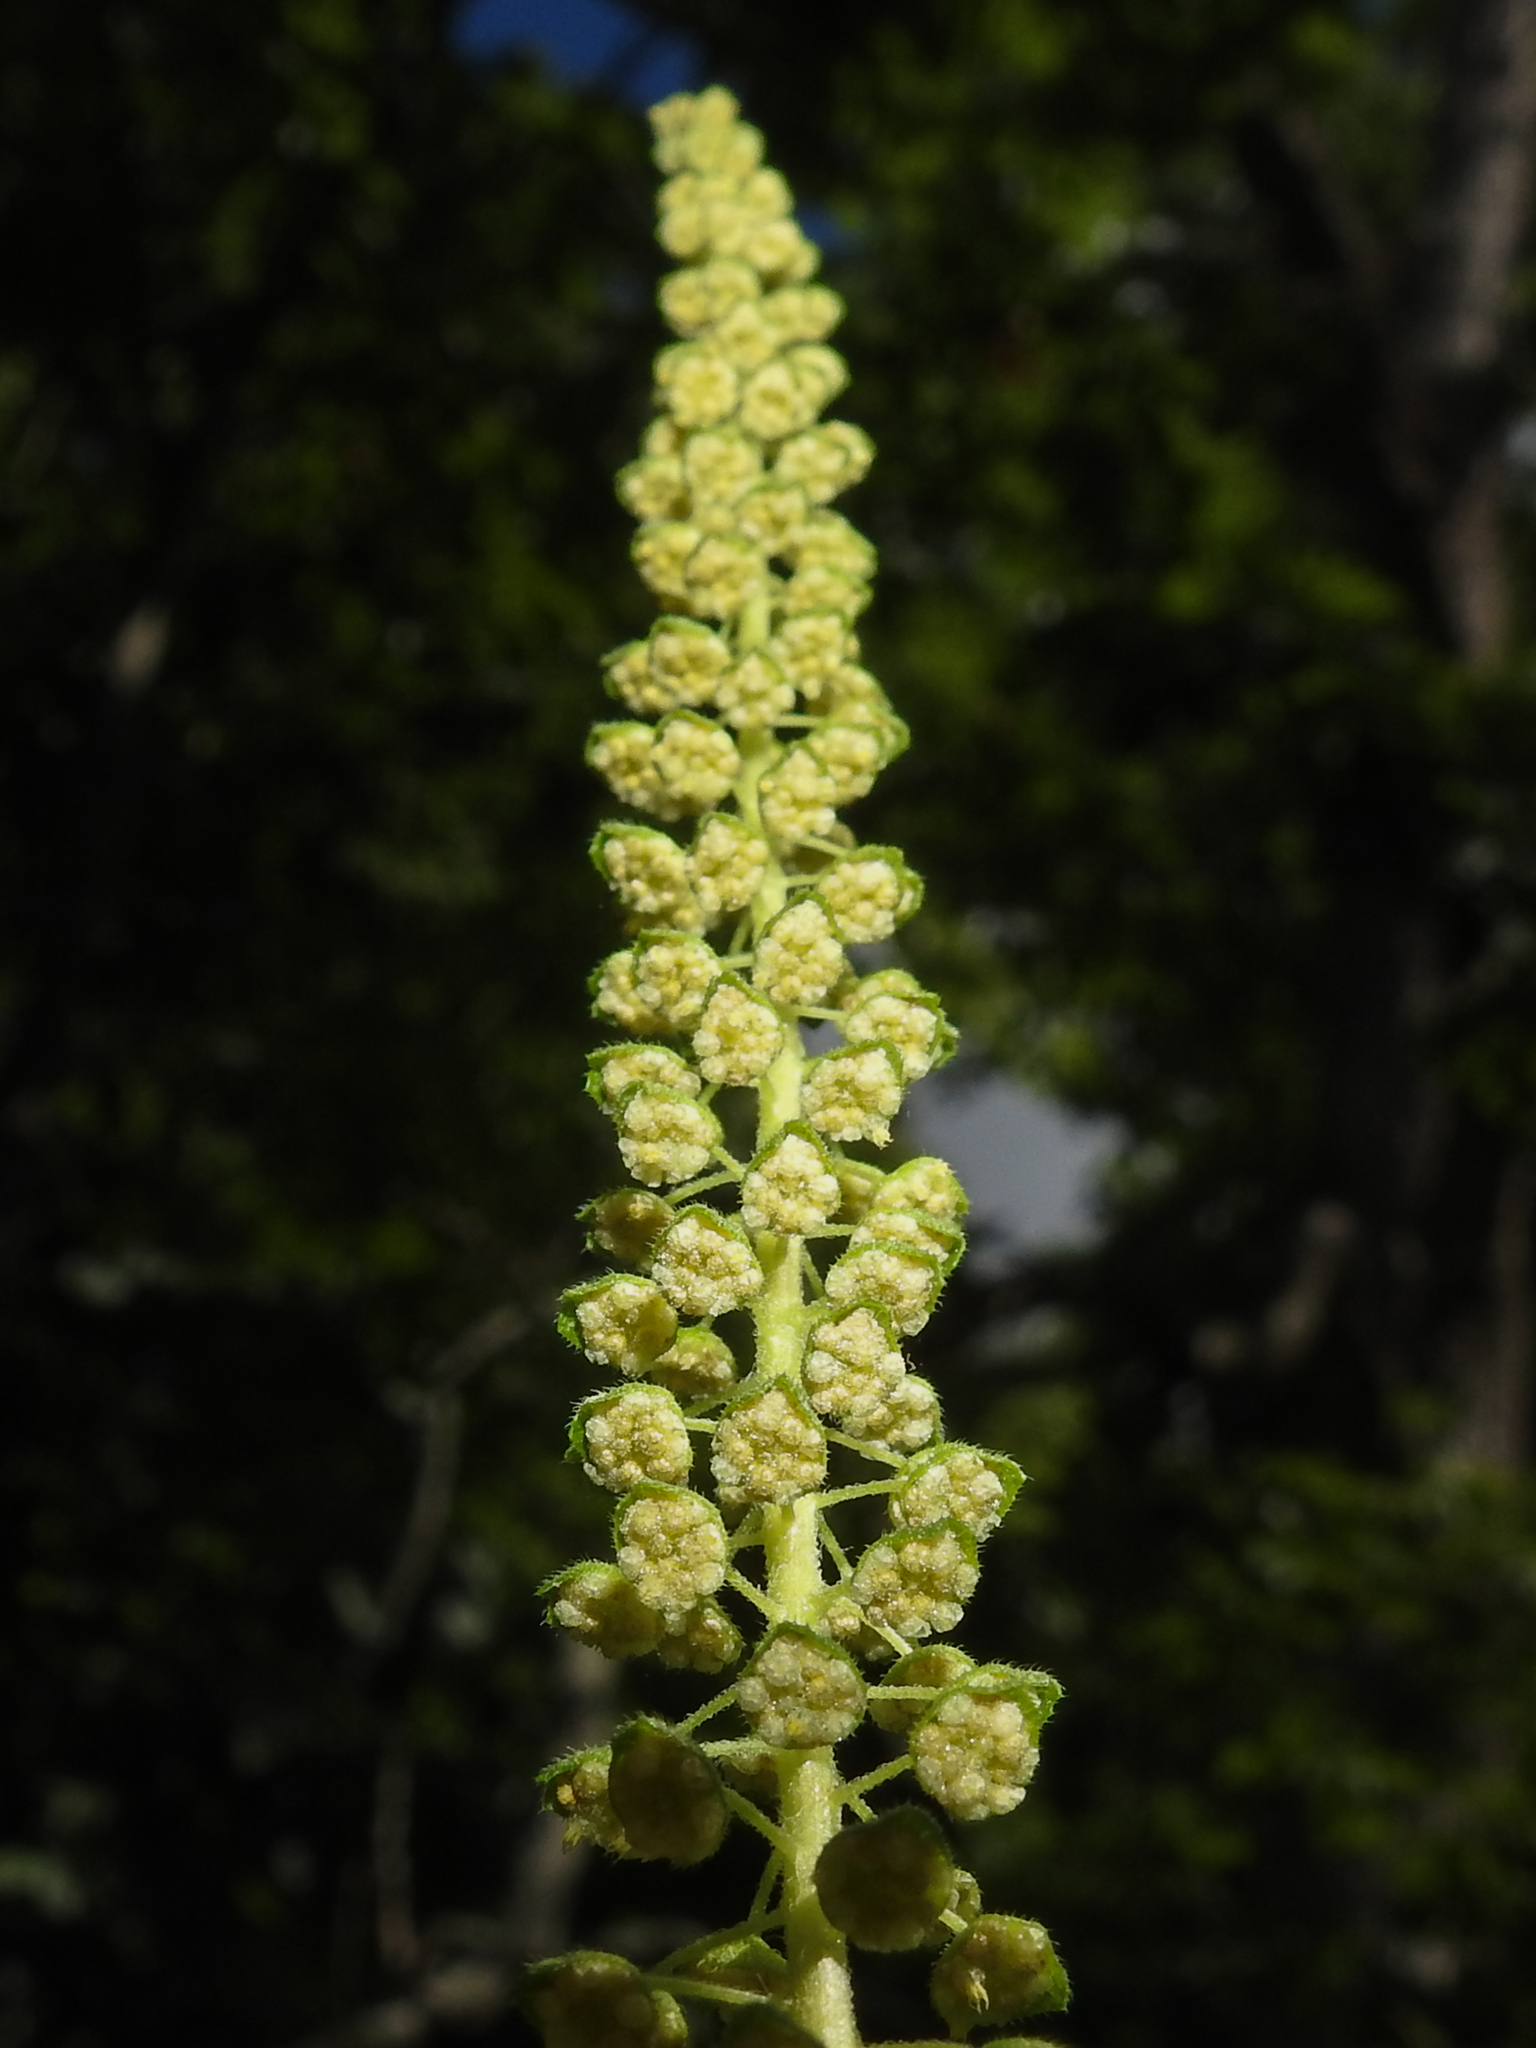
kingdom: Plantae
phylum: Tracheophyta
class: Magnoliopsida
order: Asterales
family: Asteraceae
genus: Ambrosia
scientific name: Ambrosia artemisiifolia
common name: Annual ragweed
